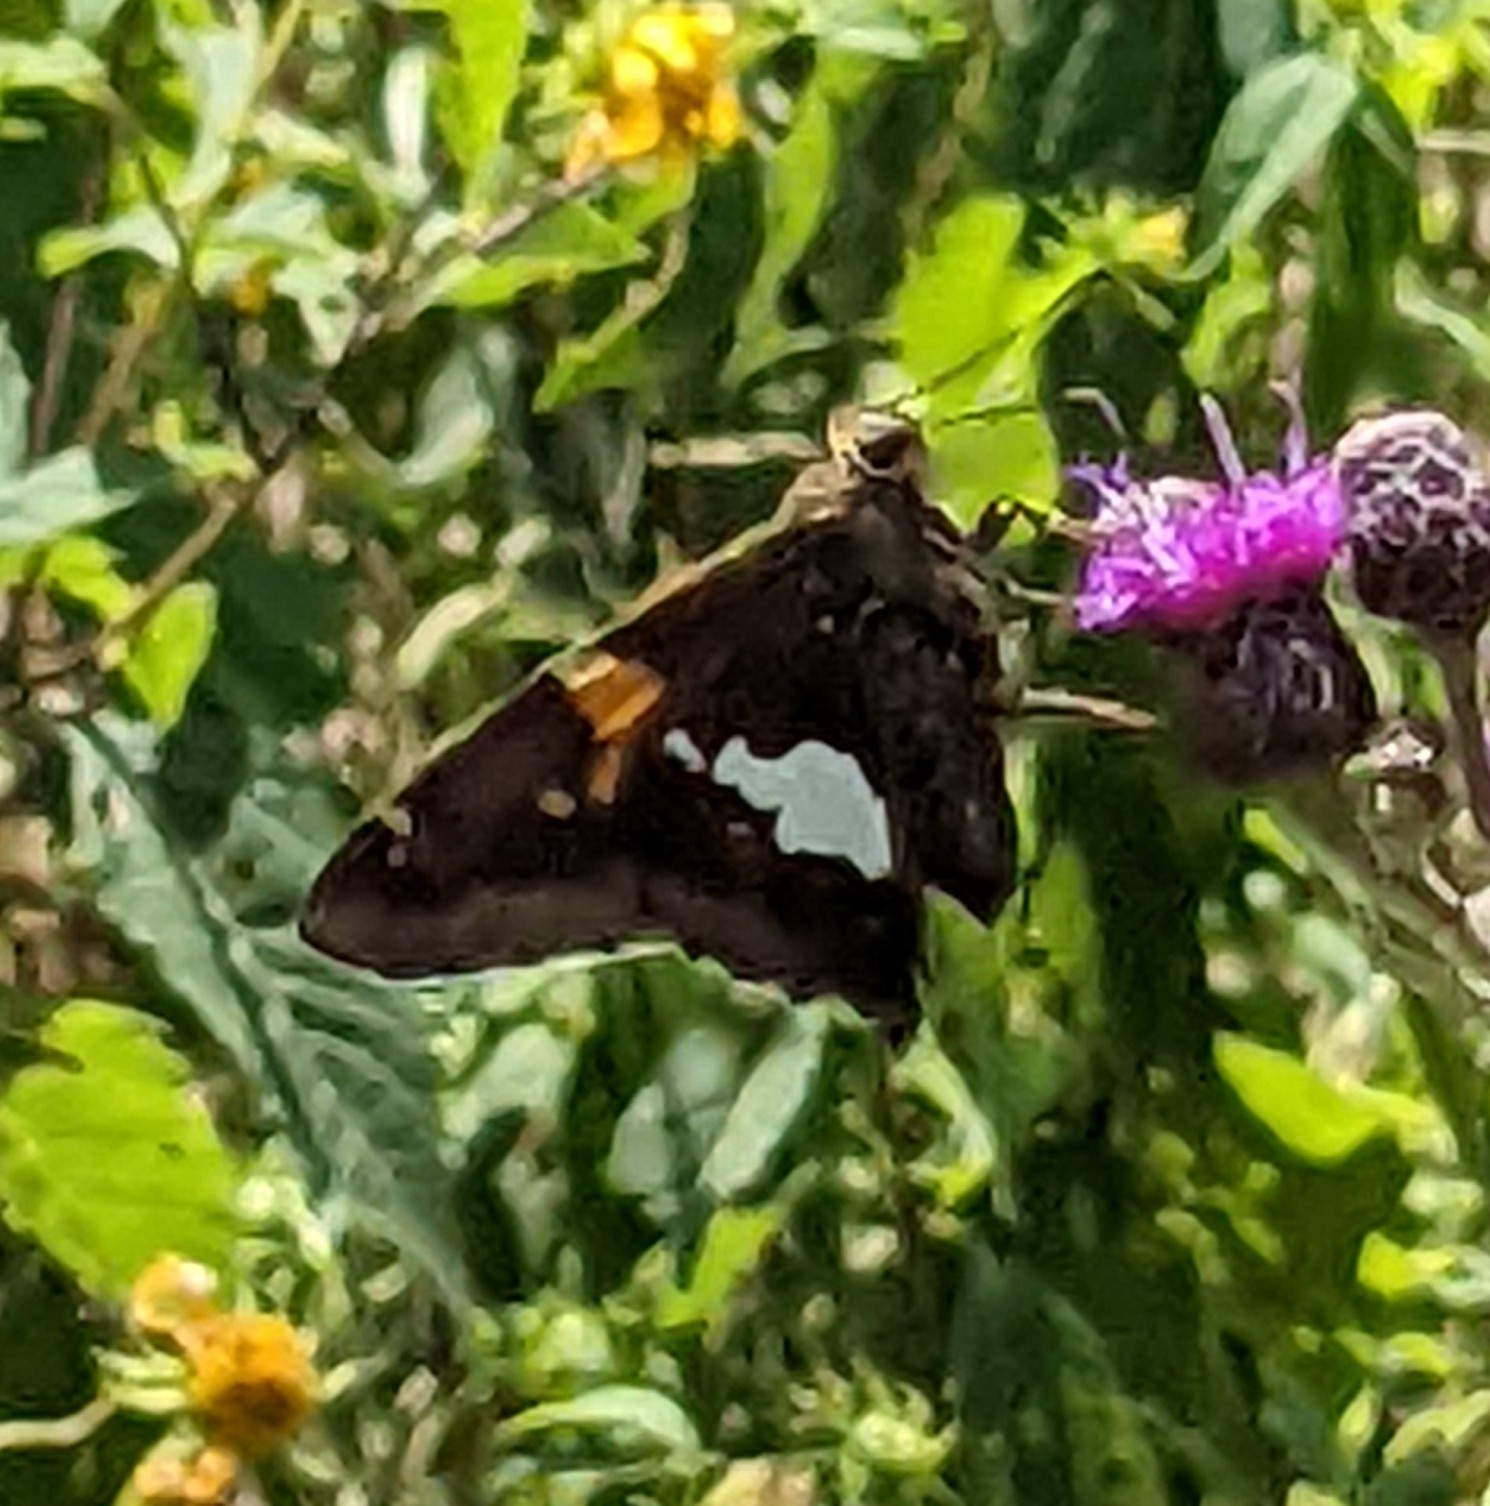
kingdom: Animalia
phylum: Arthropoda
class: Insecta
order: Lepidoptera
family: Hesperiidae
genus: Epargyreus
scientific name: Epargyreus clarus
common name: Silver-spotted skipper
